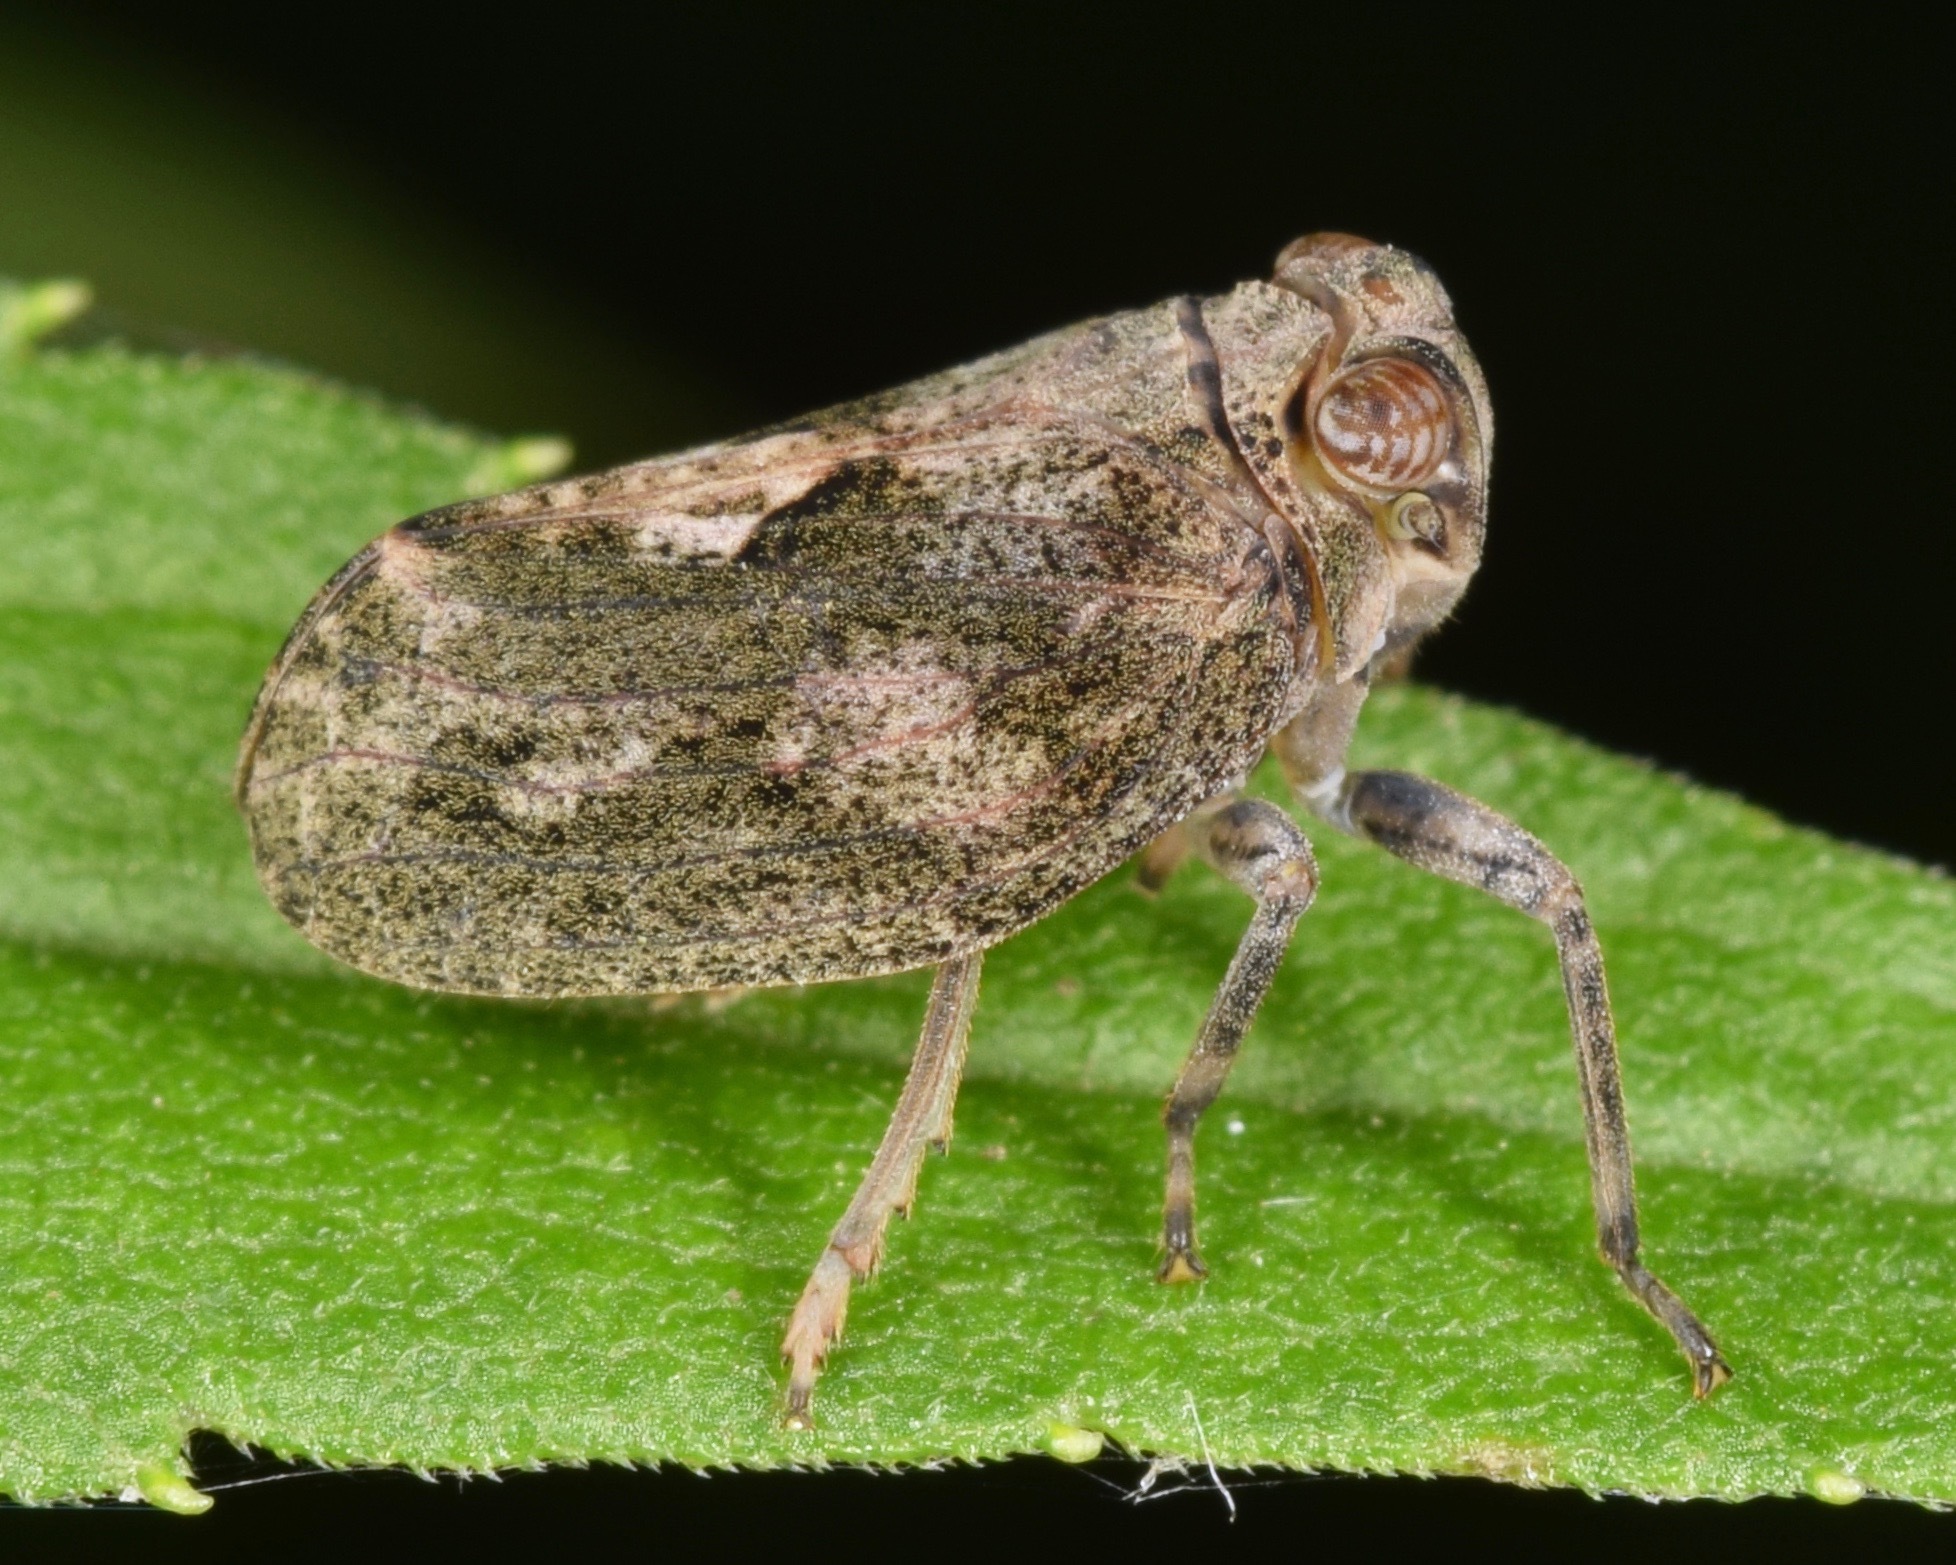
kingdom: Animalia
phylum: Arthropoda
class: Insecta
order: Hemiptera
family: Issidae
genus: Thionia
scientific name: Thionia elliptica
